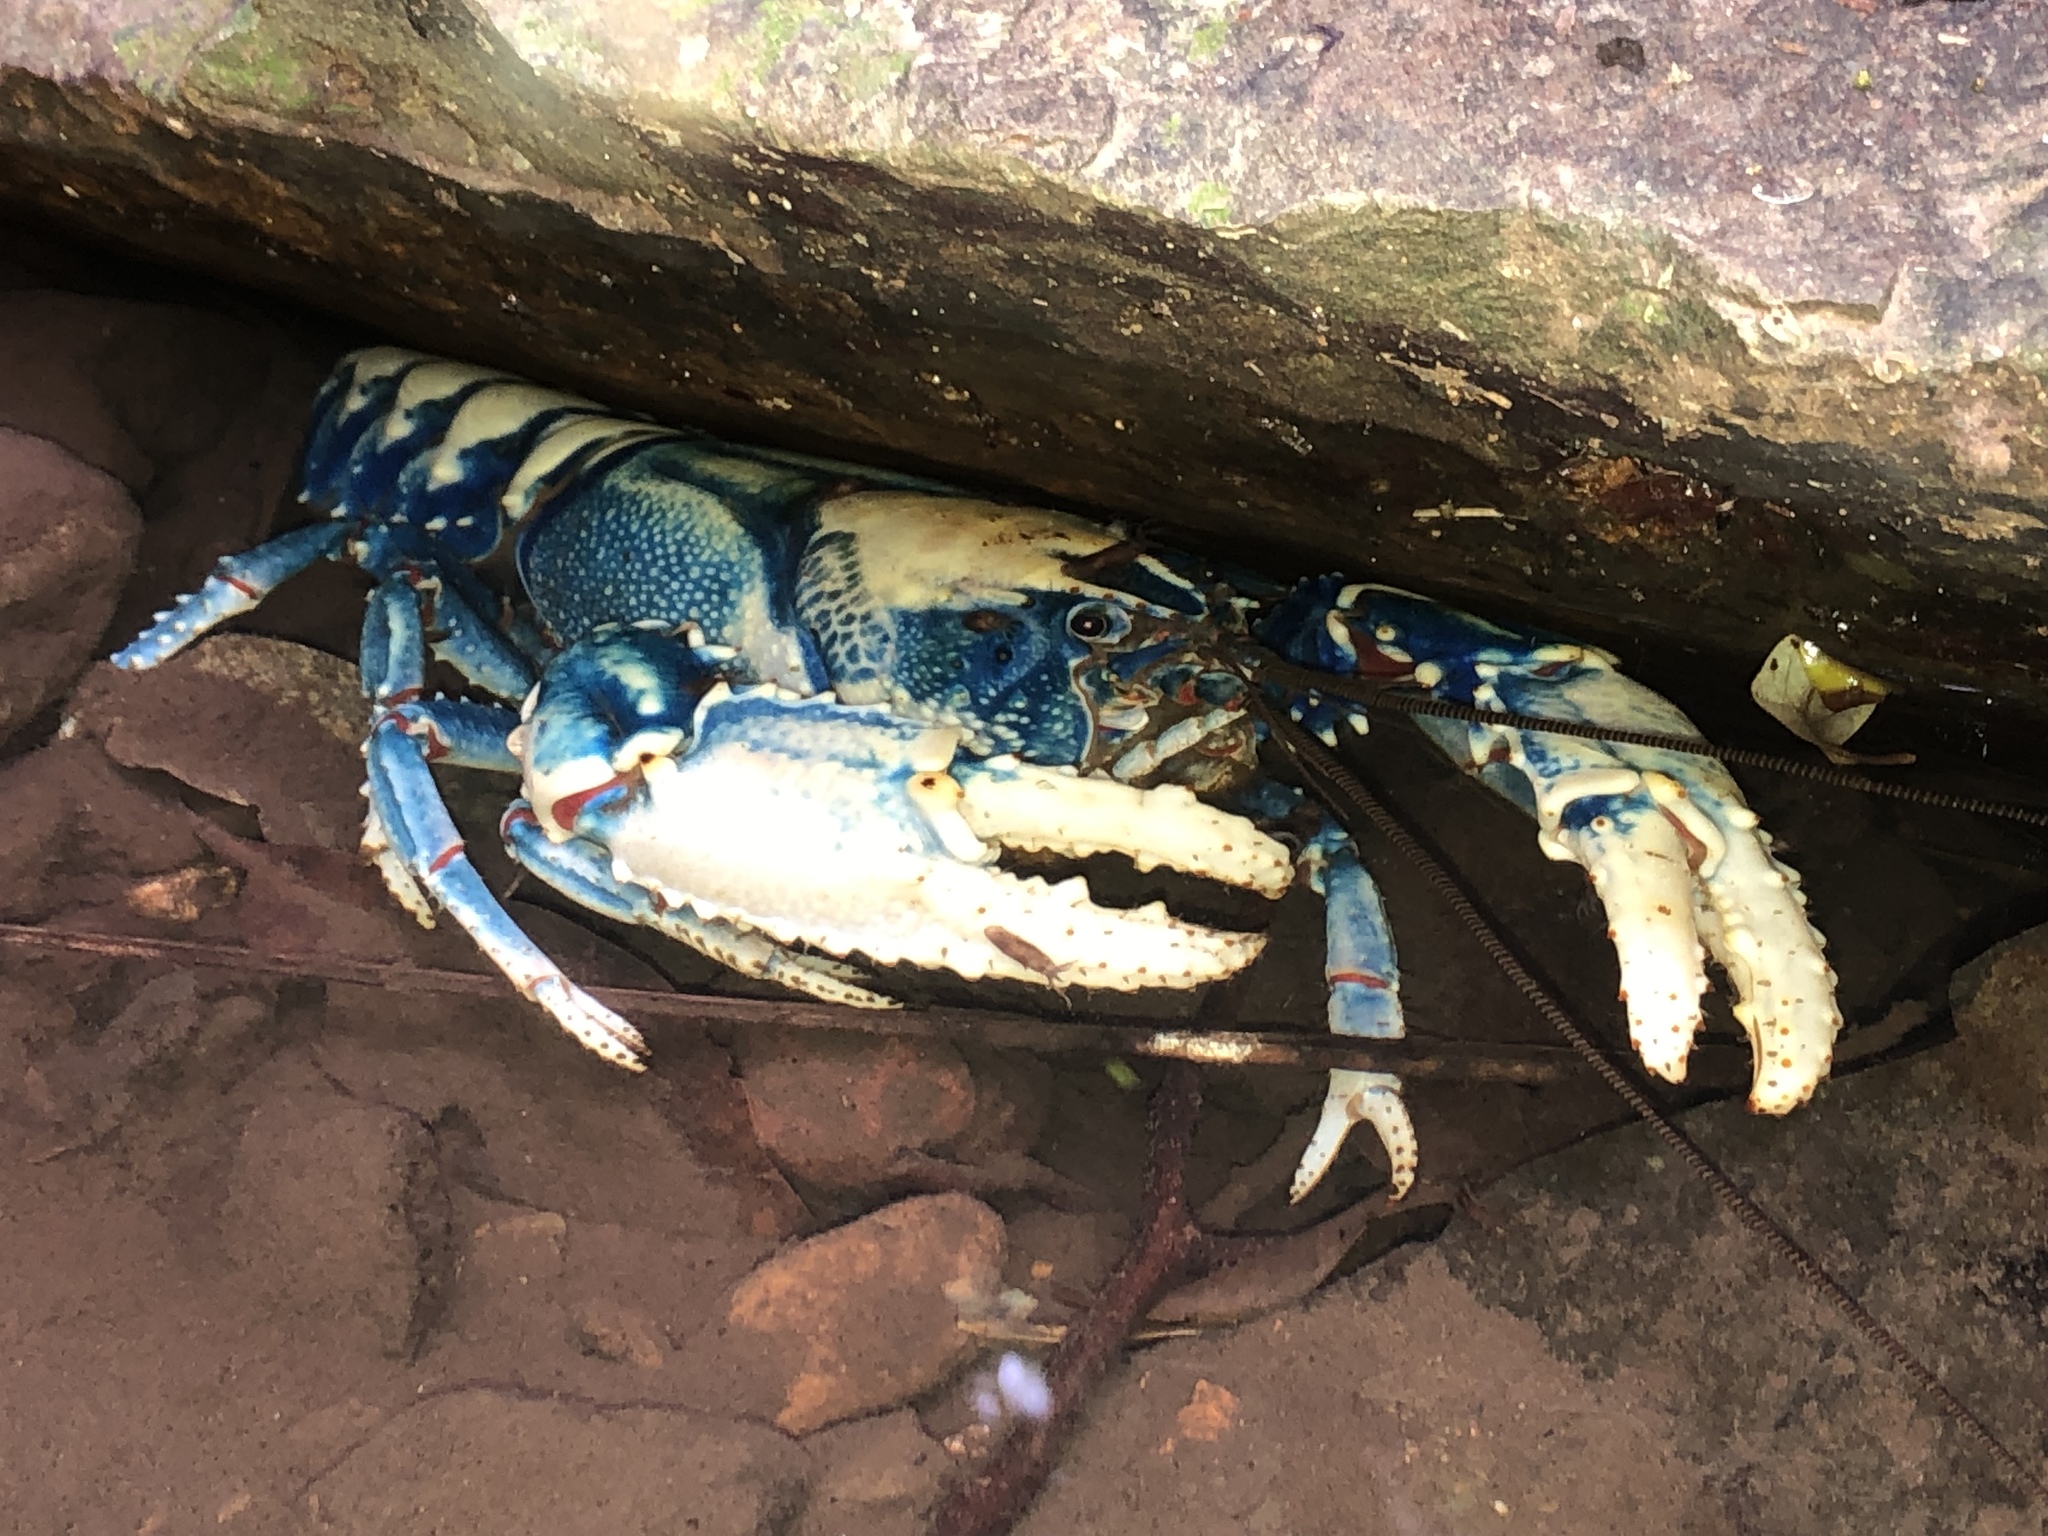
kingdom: Animalia
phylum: Arthropoda
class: Malacostraca
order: Decapoda
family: Parastacidae
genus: Euastacus
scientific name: Euastacus sulcatus
